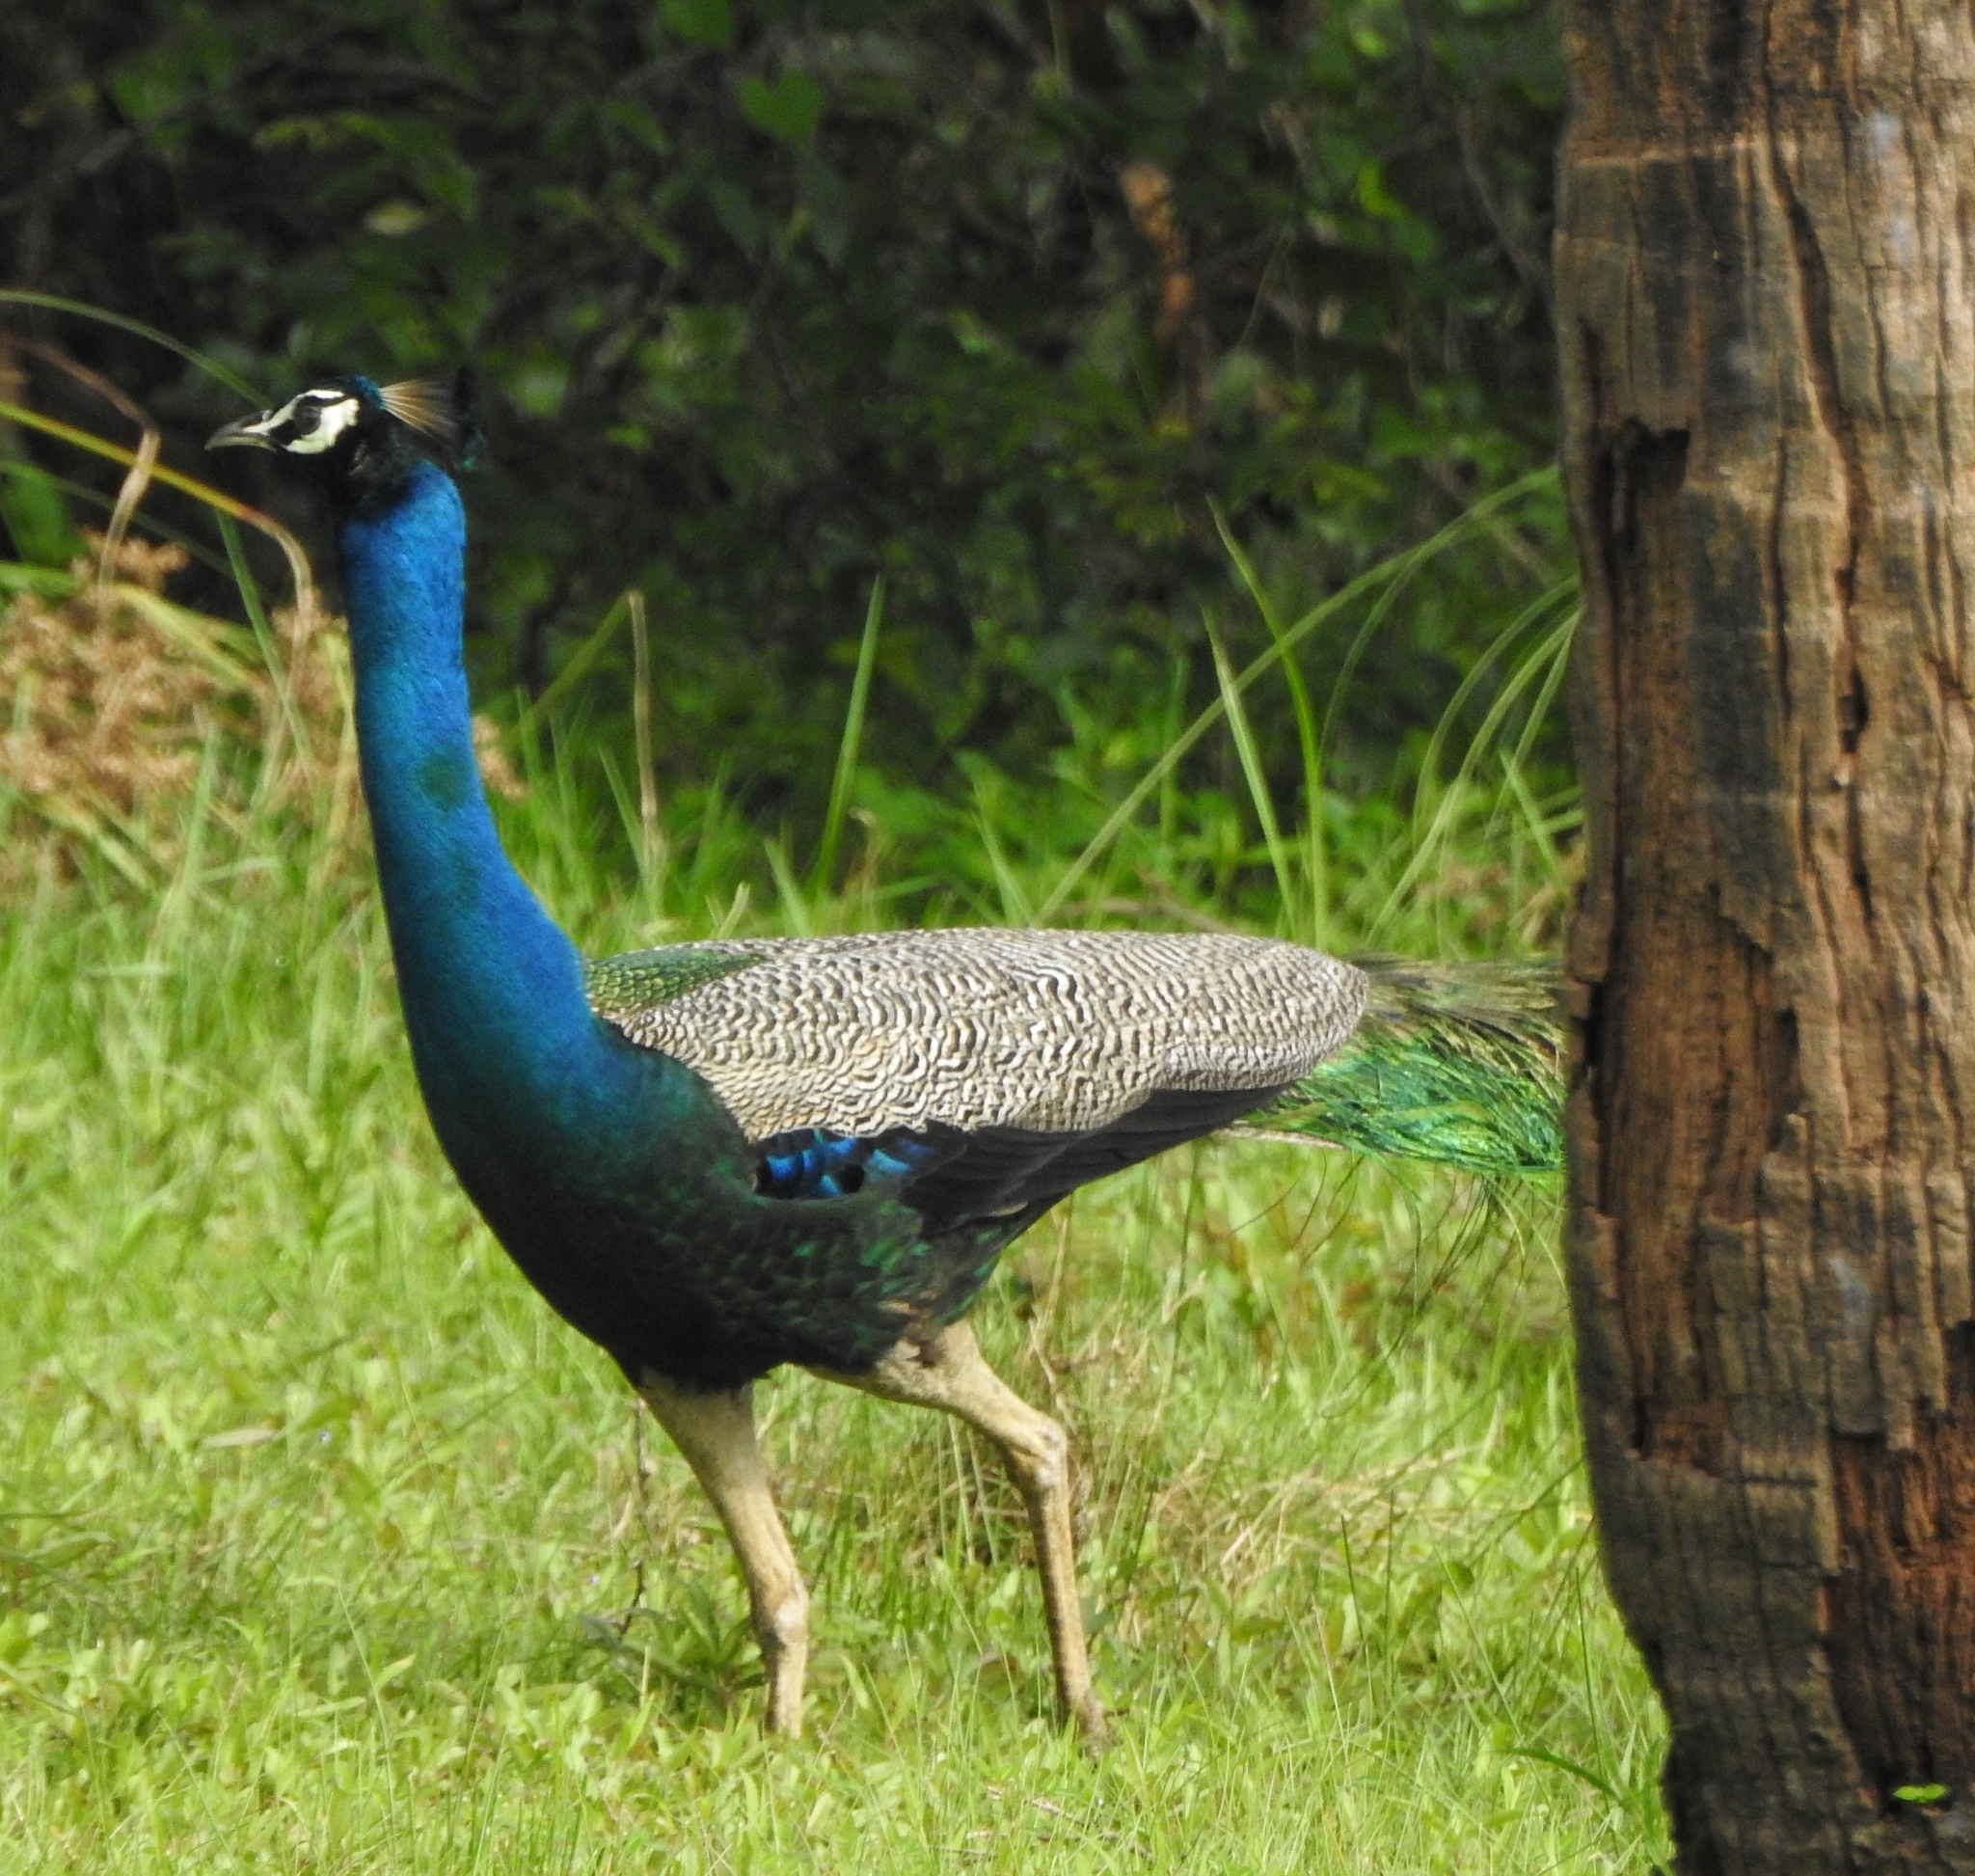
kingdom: Animalia
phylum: Chordata
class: Aves
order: Galliformes
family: Phasianidae
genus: Pavo
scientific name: Pavo cristatus
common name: Indian peafowl
